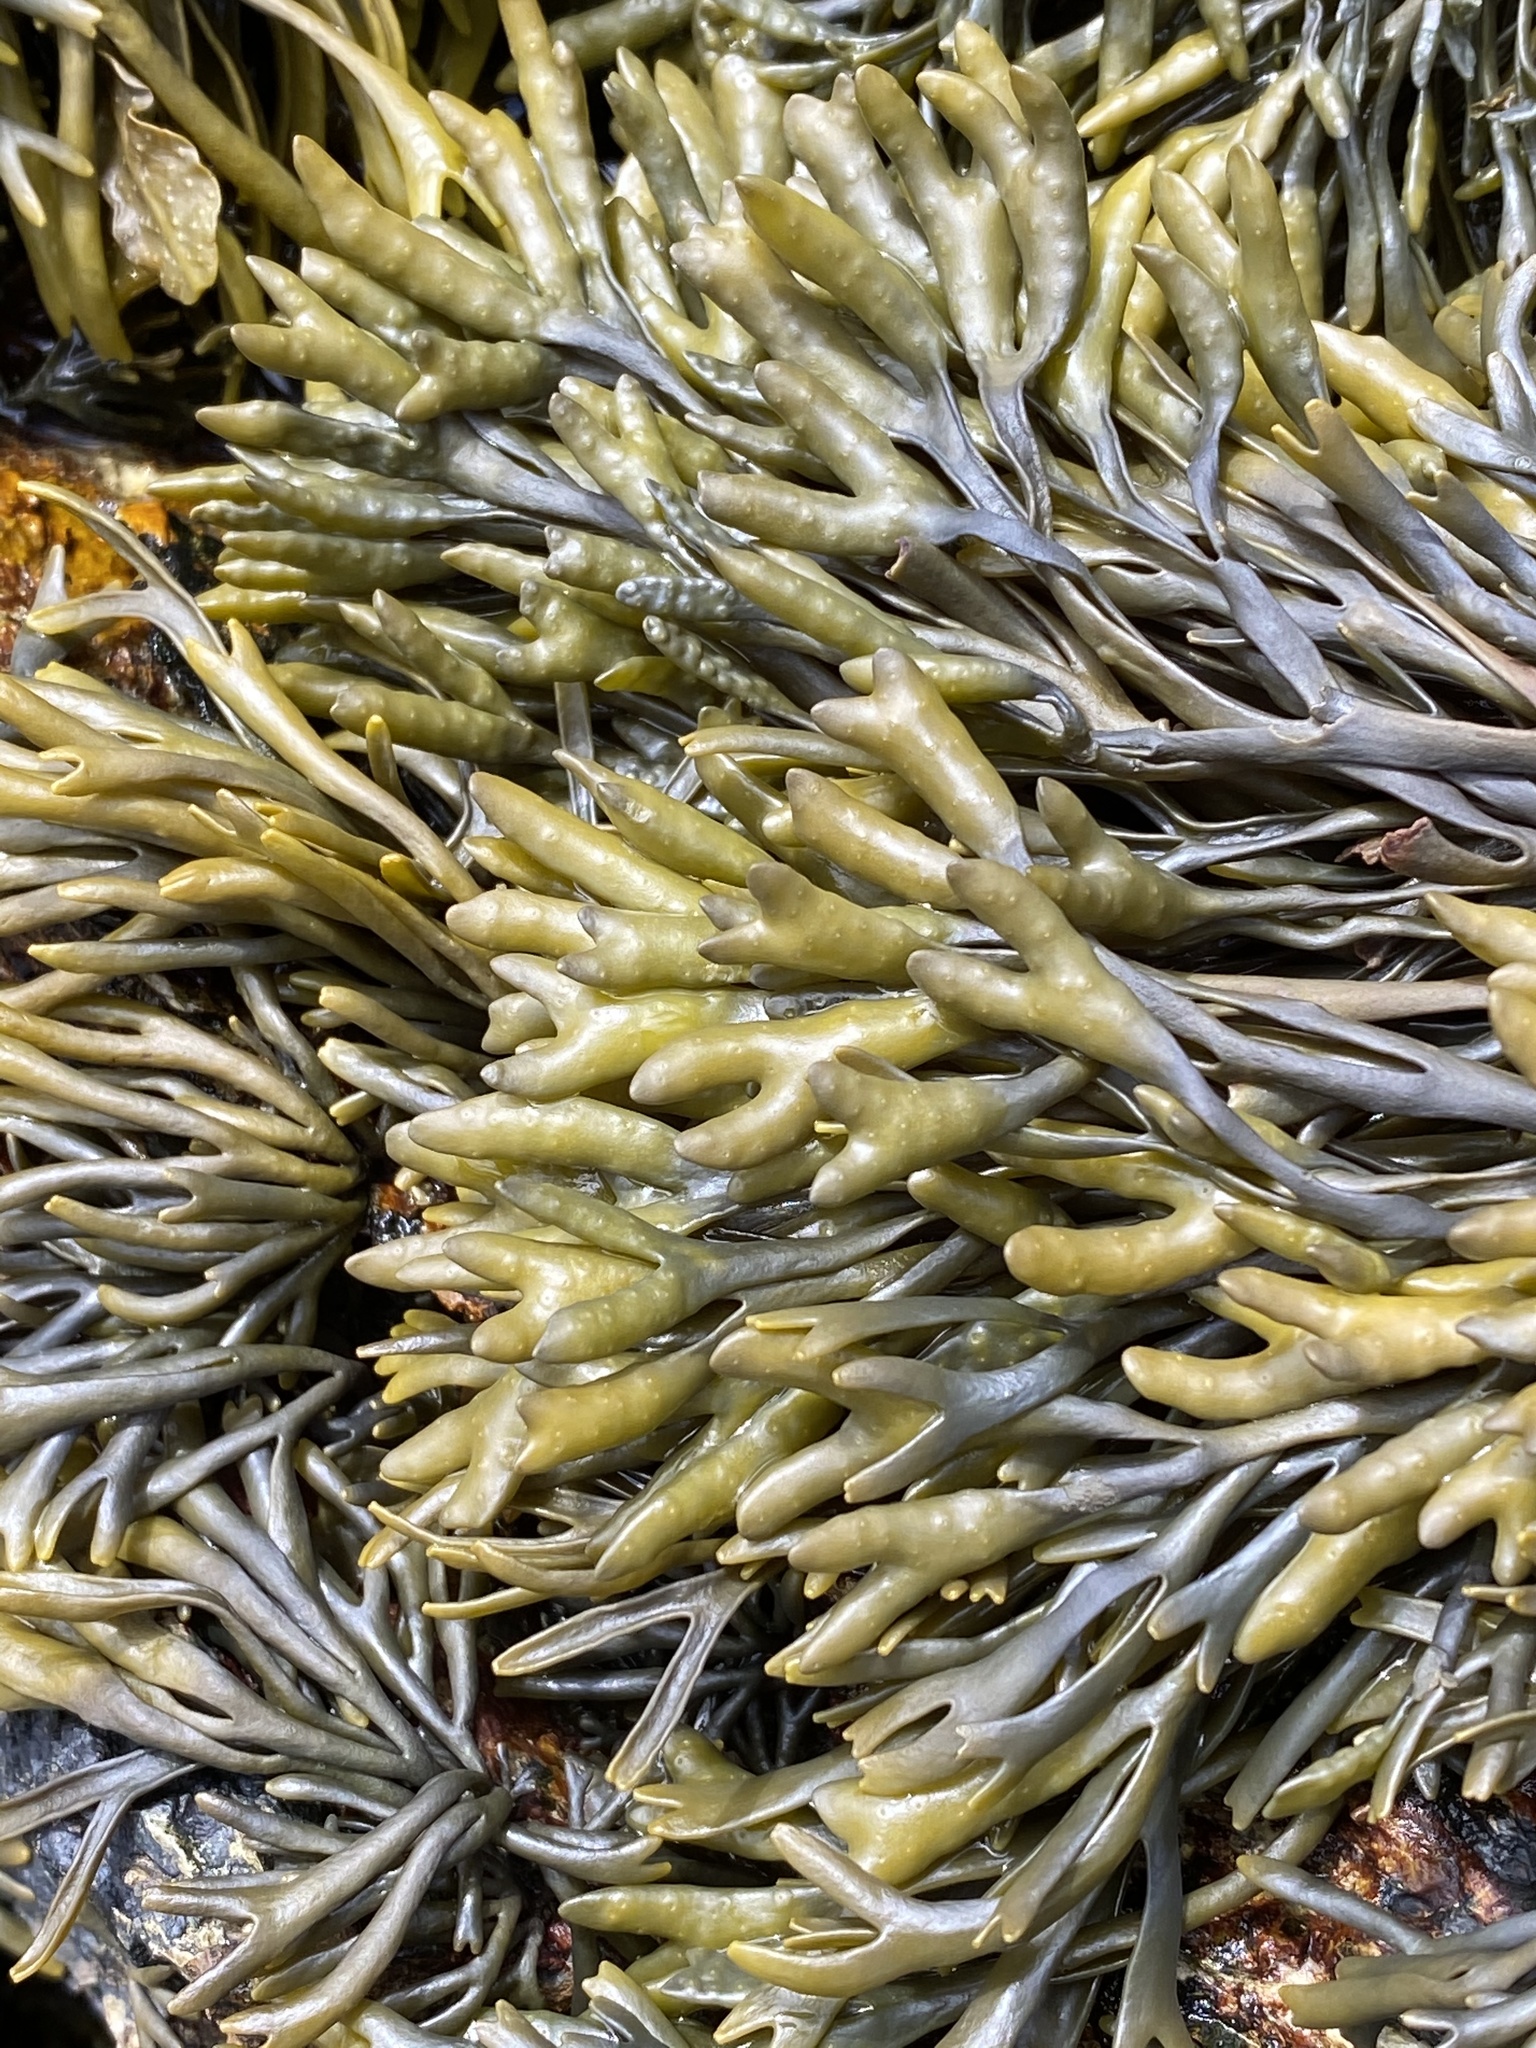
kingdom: Chromista
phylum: Ochrophyta
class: Phaeophyceae
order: Fucales
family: Fucaceae
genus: Pelvetia
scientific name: Pelvetia canaliculata
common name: Channelled wrack
